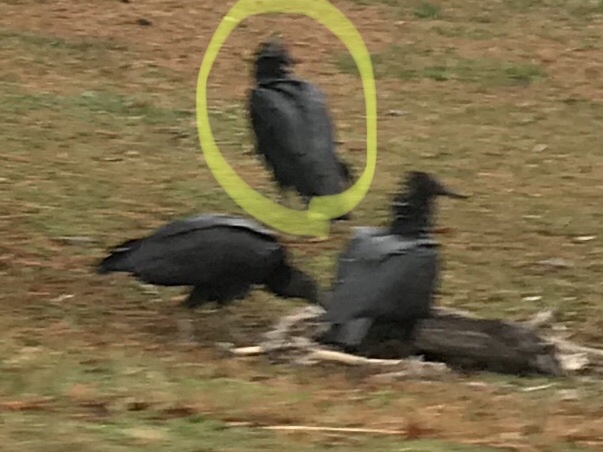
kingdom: Animalia
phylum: Chordata
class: Aves
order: Accipitriformes
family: Cathartidae
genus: Coragyps
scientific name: Coragyps atratus
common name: Black vulture
